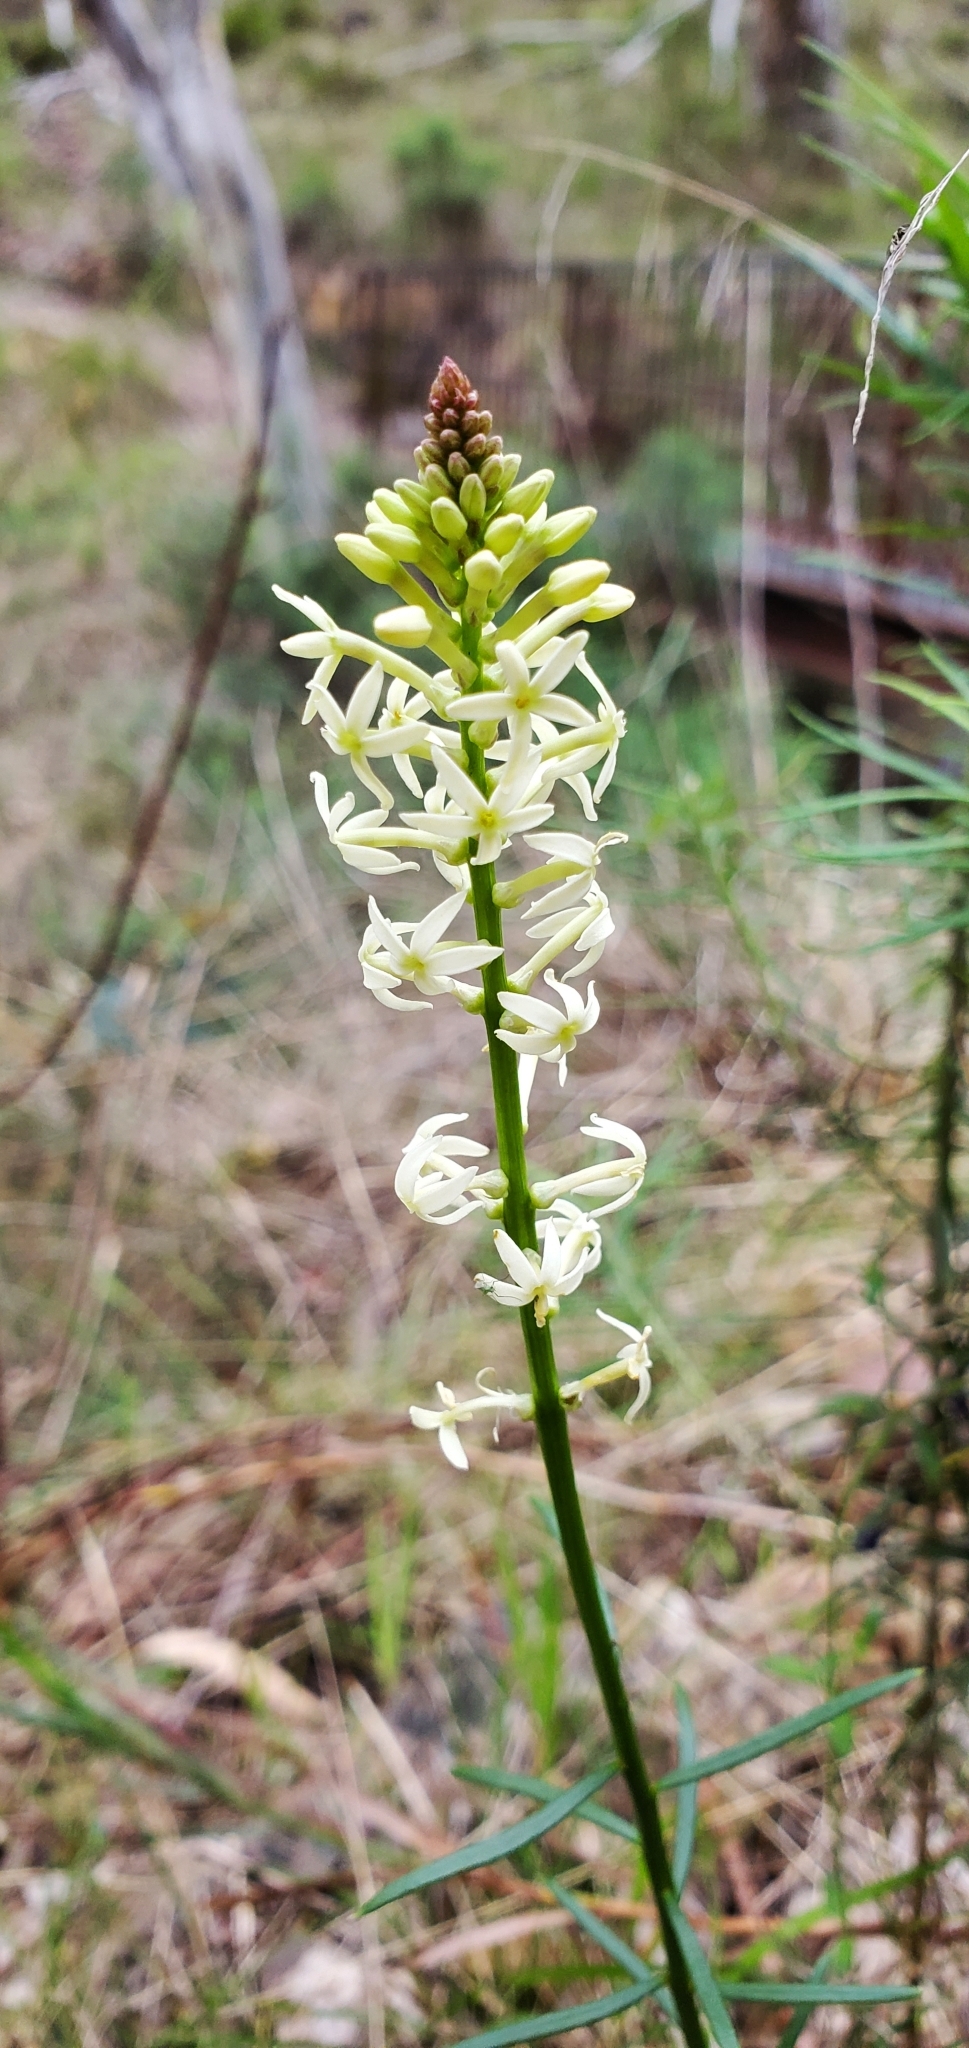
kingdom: Plantae
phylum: Tracheophyta
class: Magnoliopsida
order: Celastrales
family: Celastraceae
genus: Stackhousia
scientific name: Stackhousia monogyna
